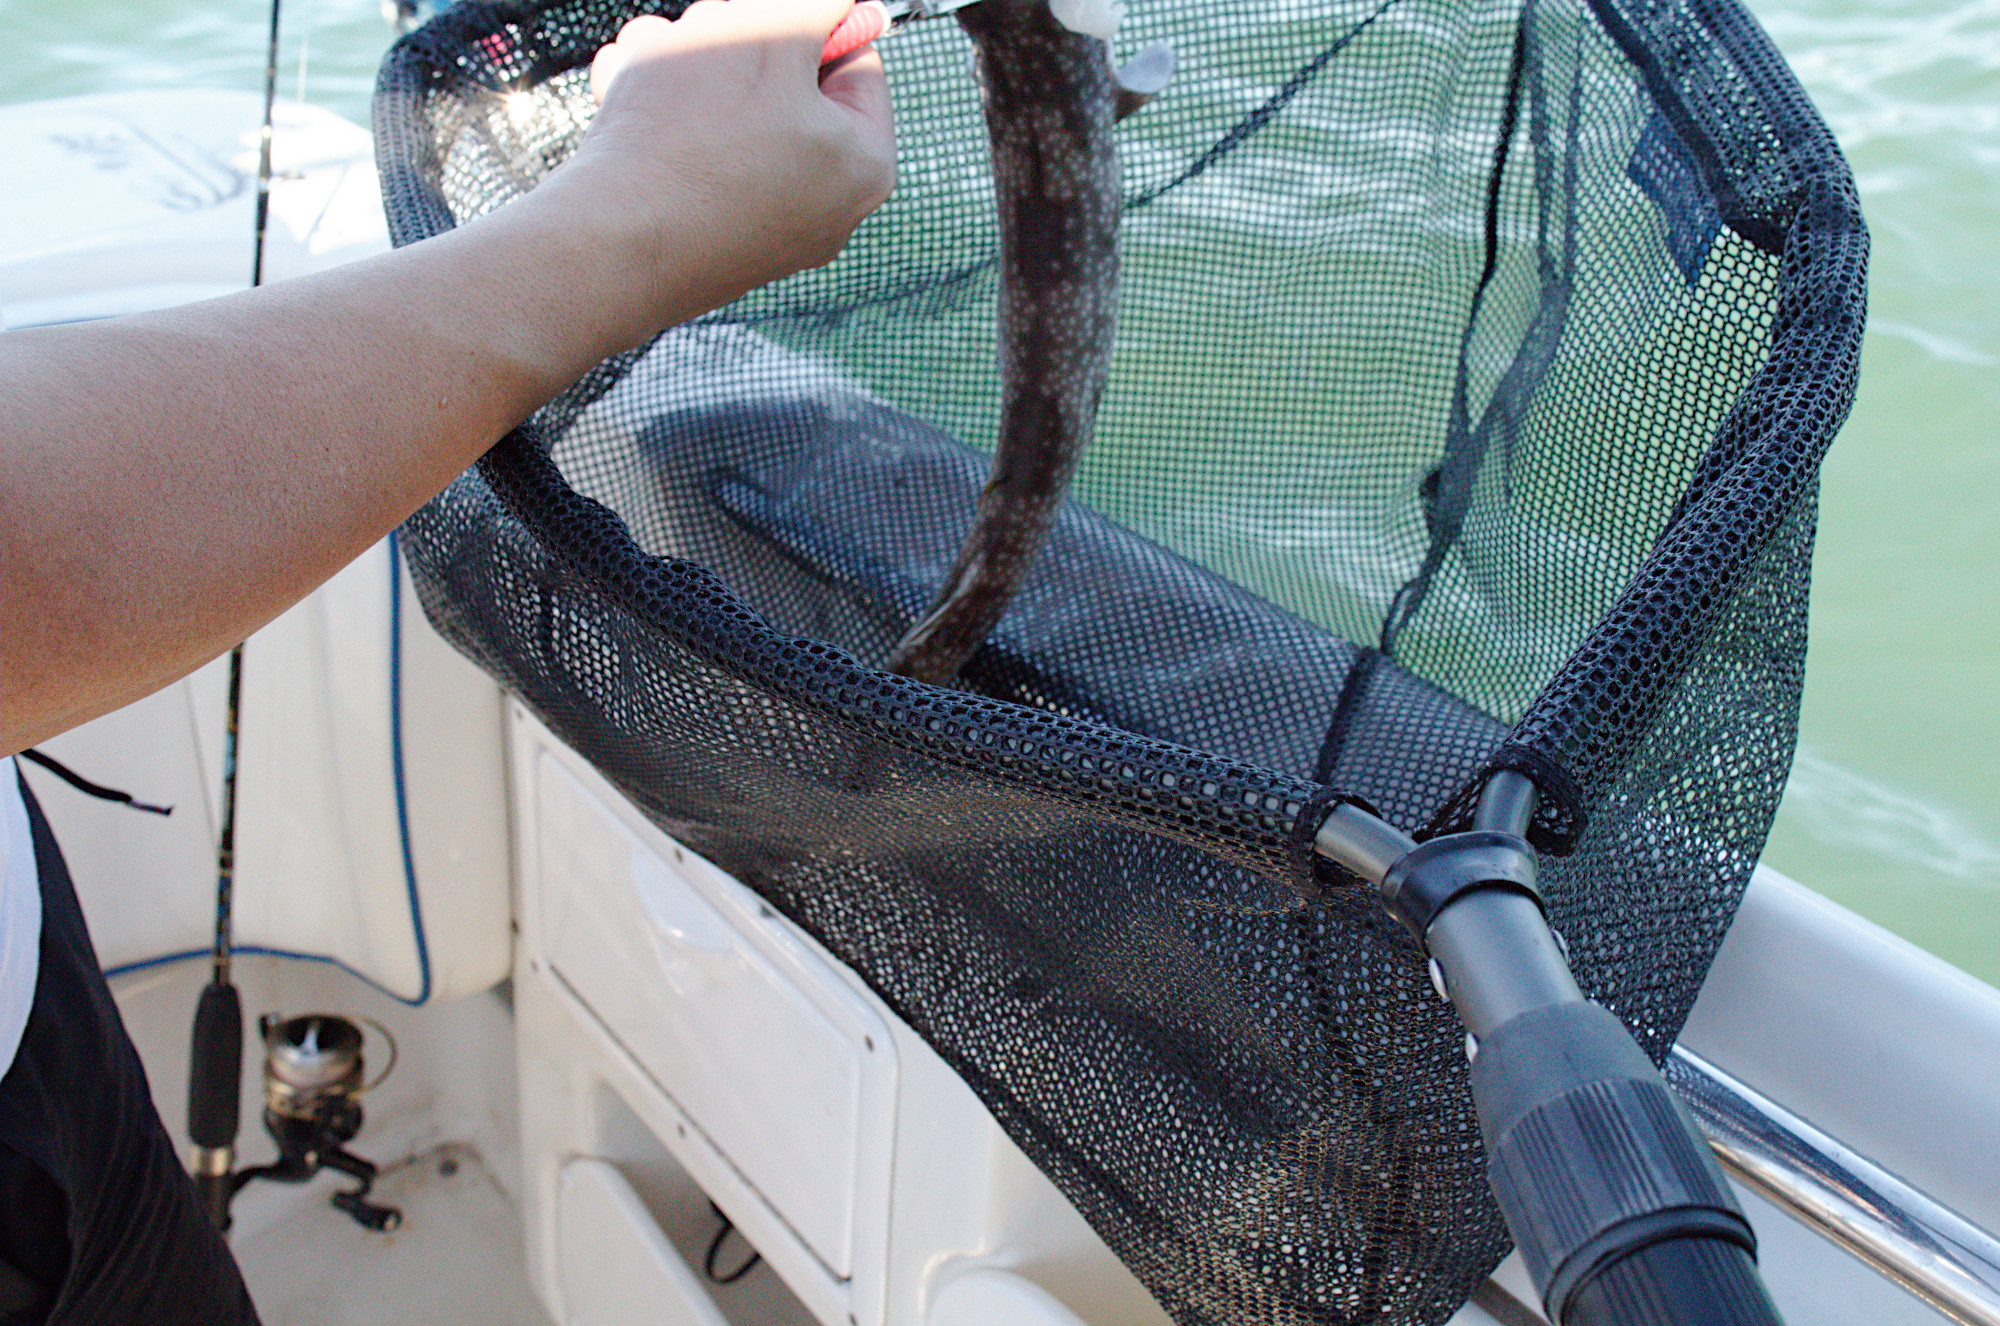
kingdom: Animalia
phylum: Chordata
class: Elasmobranchii
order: Carcharhiniformes
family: Scyliorhinidae
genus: Asymbolus
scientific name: Asymbolus vincenti
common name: Gulf catshark
